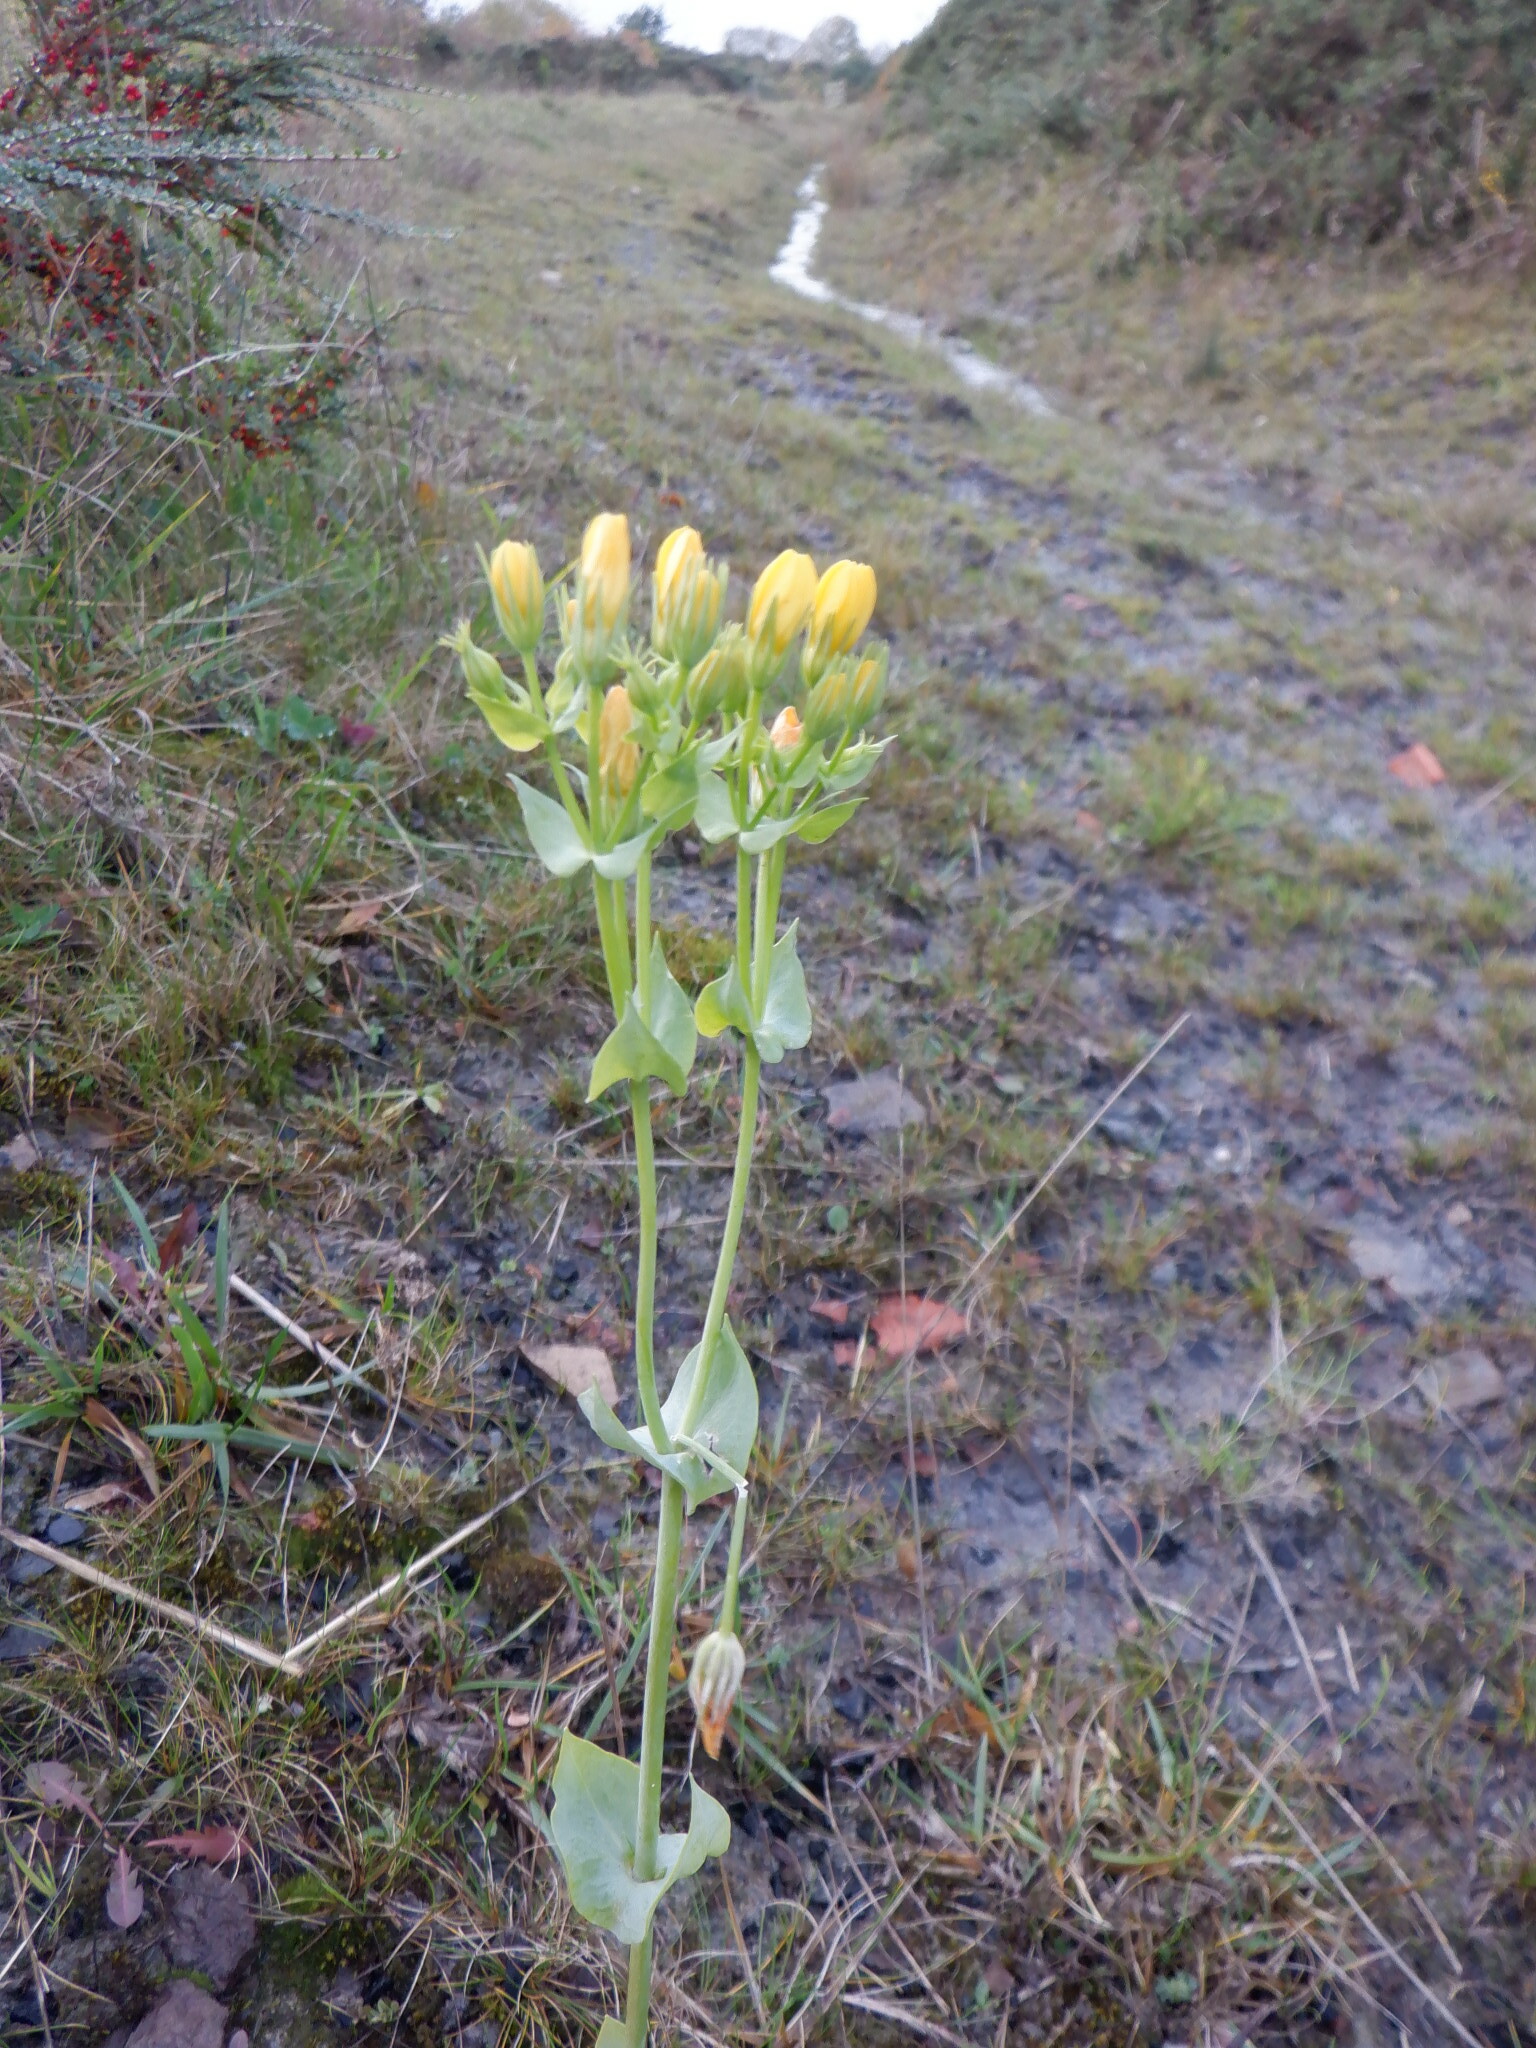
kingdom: Plantae
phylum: Tracheophyta
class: Magnoliopsida
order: Gentianales
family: Gentianaceae
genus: Blackstonia
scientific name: Blackstonia perfoliata
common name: Yellow-wort
